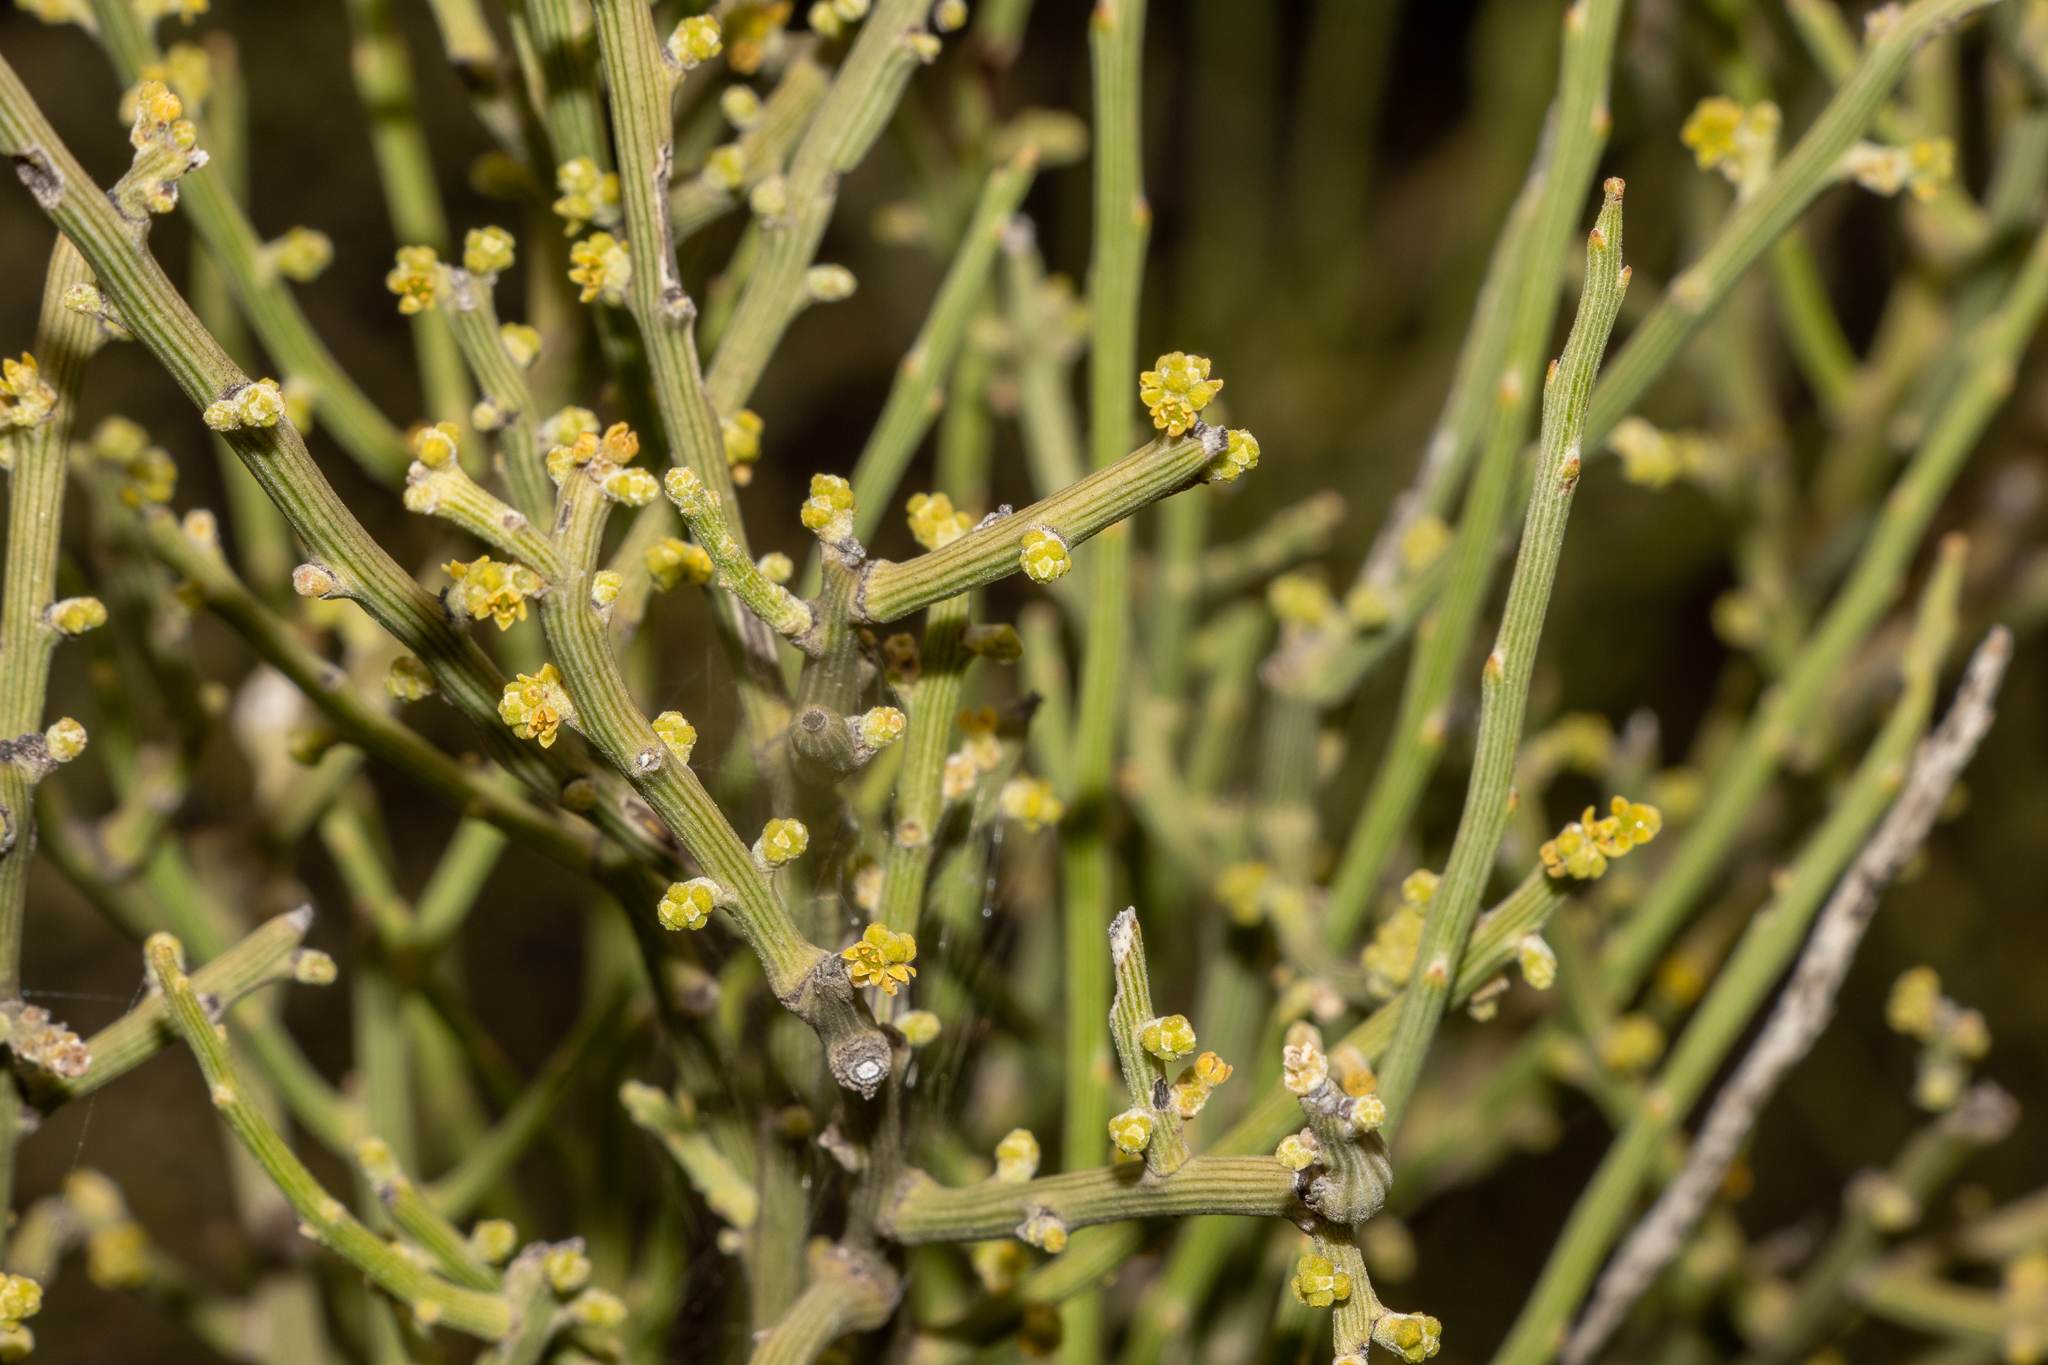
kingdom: Plantae
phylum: Tracheophyta
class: Magnoliopsida
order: Santalales
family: Santalaceae
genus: Exocarpos
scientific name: Exocarpos aphyllus
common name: Leafless ballart
